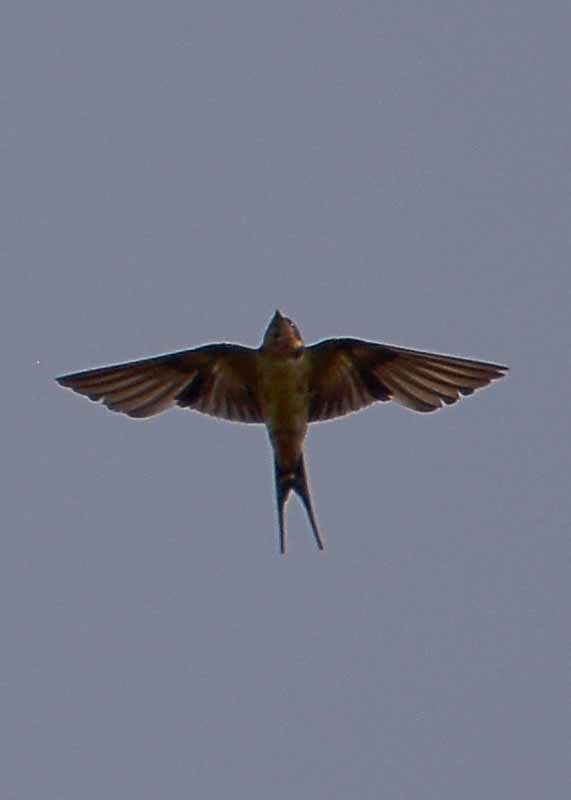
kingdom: Animalia
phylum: Chordata
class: Aves
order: Passeriformes
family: Hirundinidae
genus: Hirundo
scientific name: Hirundo rustica
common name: Barn swallow
